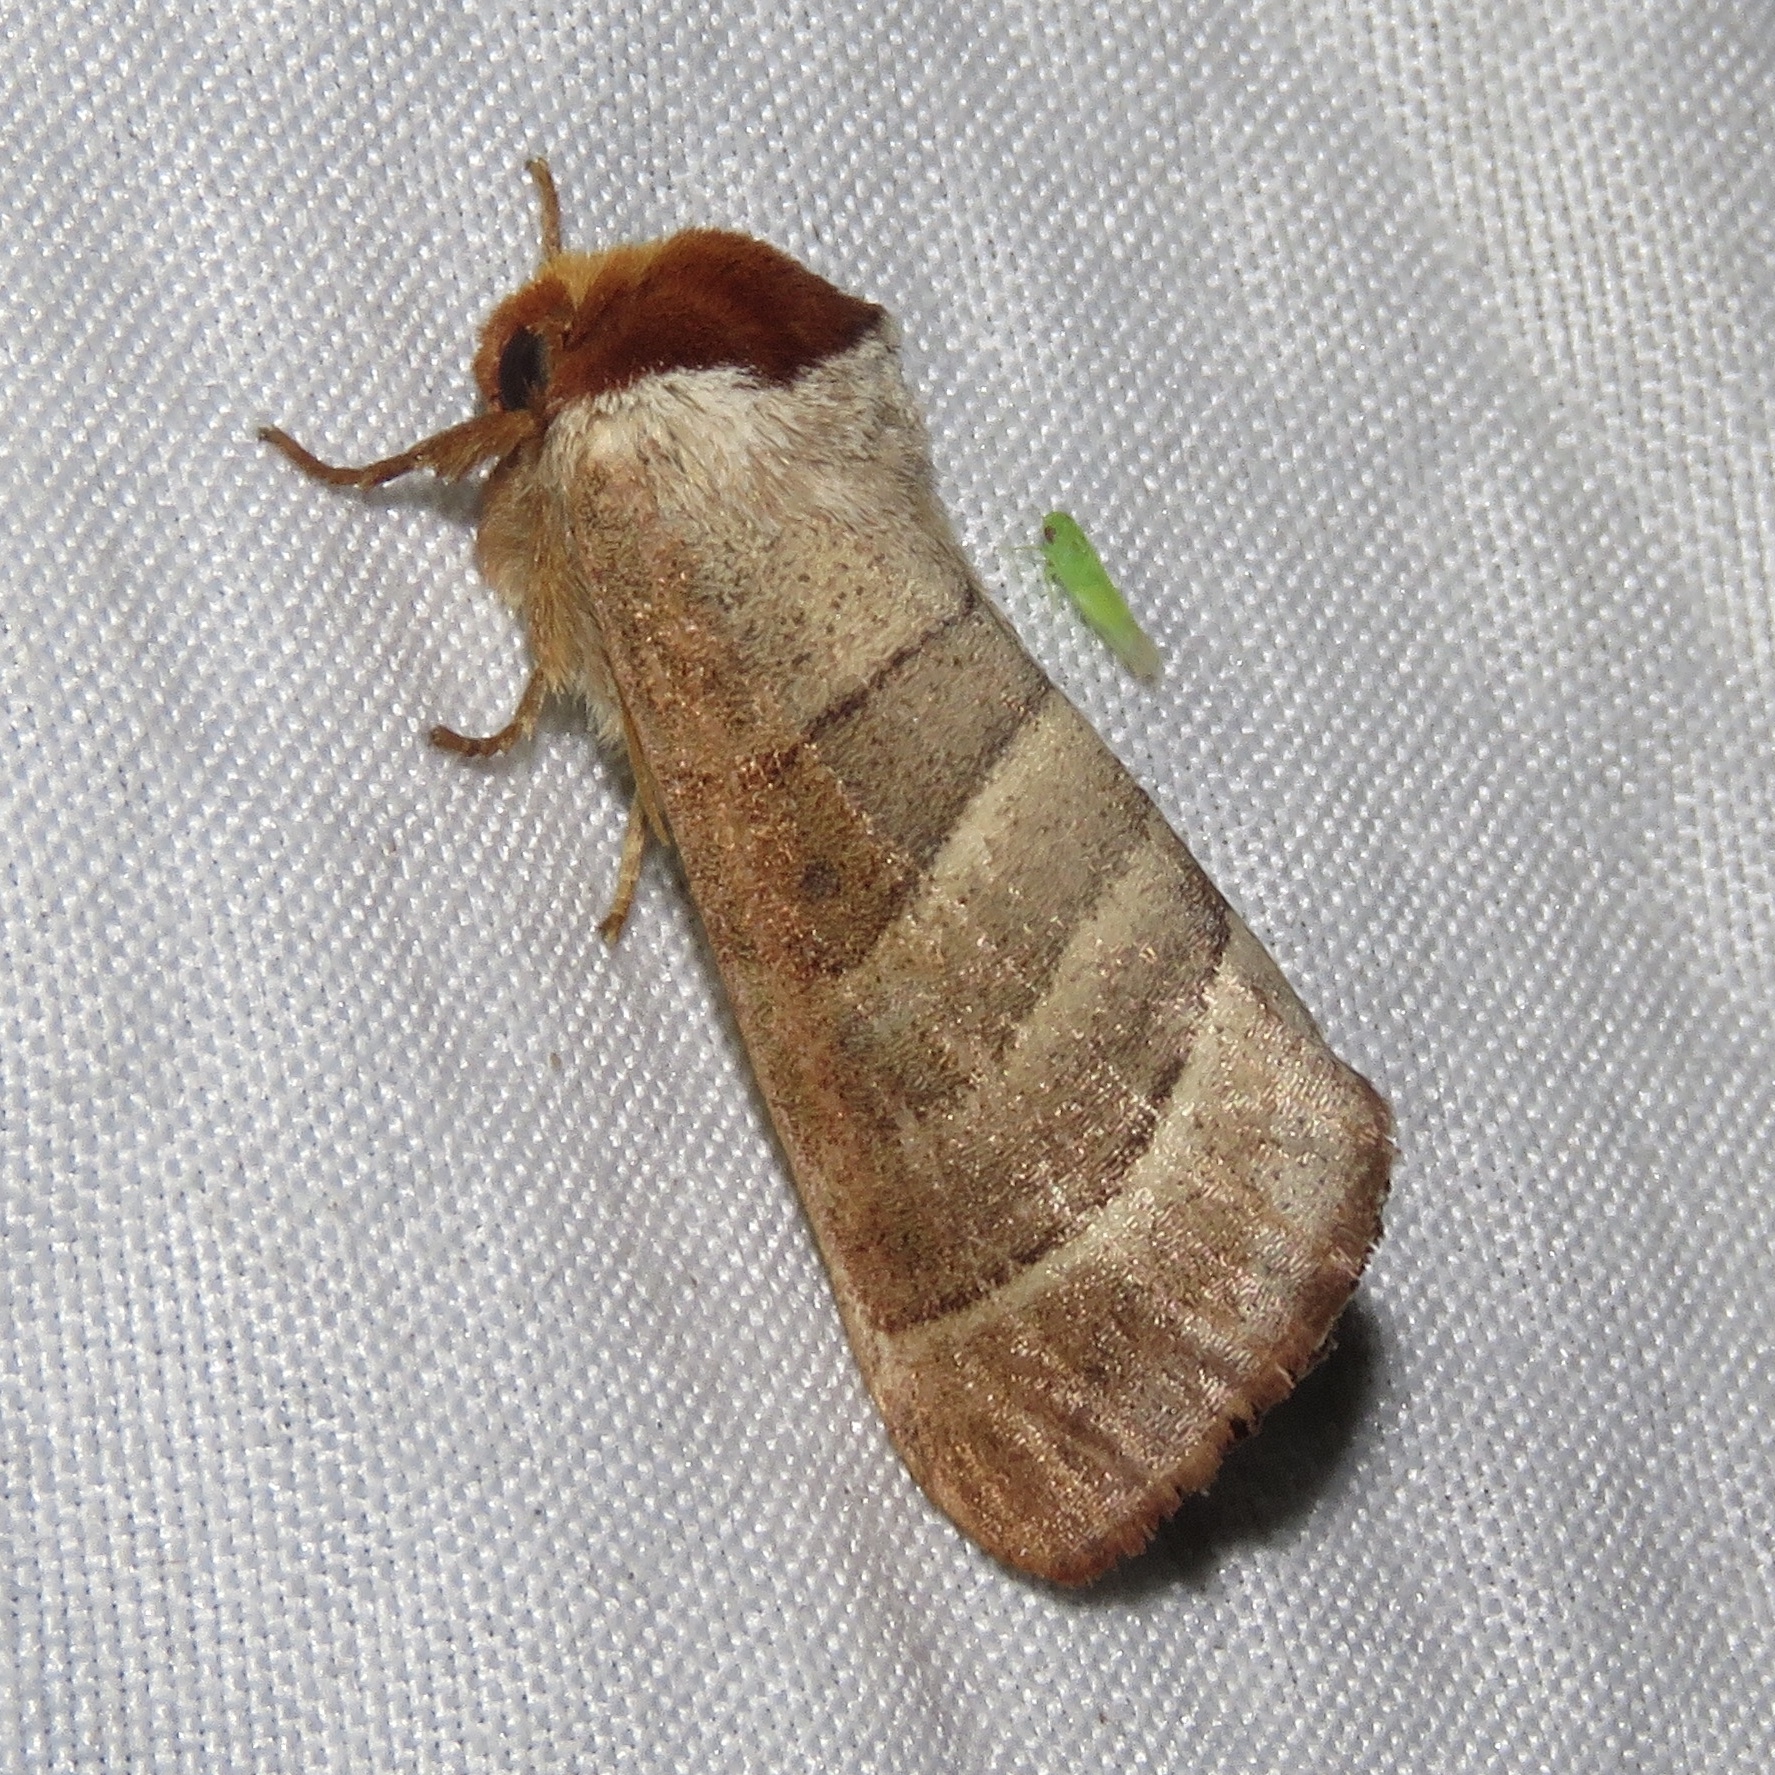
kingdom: Animalia
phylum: Arthropoda
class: Insecta
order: Lepidoptera
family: Notodontidae
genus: Datana
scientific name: Datana integerrima
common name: Walnut caterpillar
